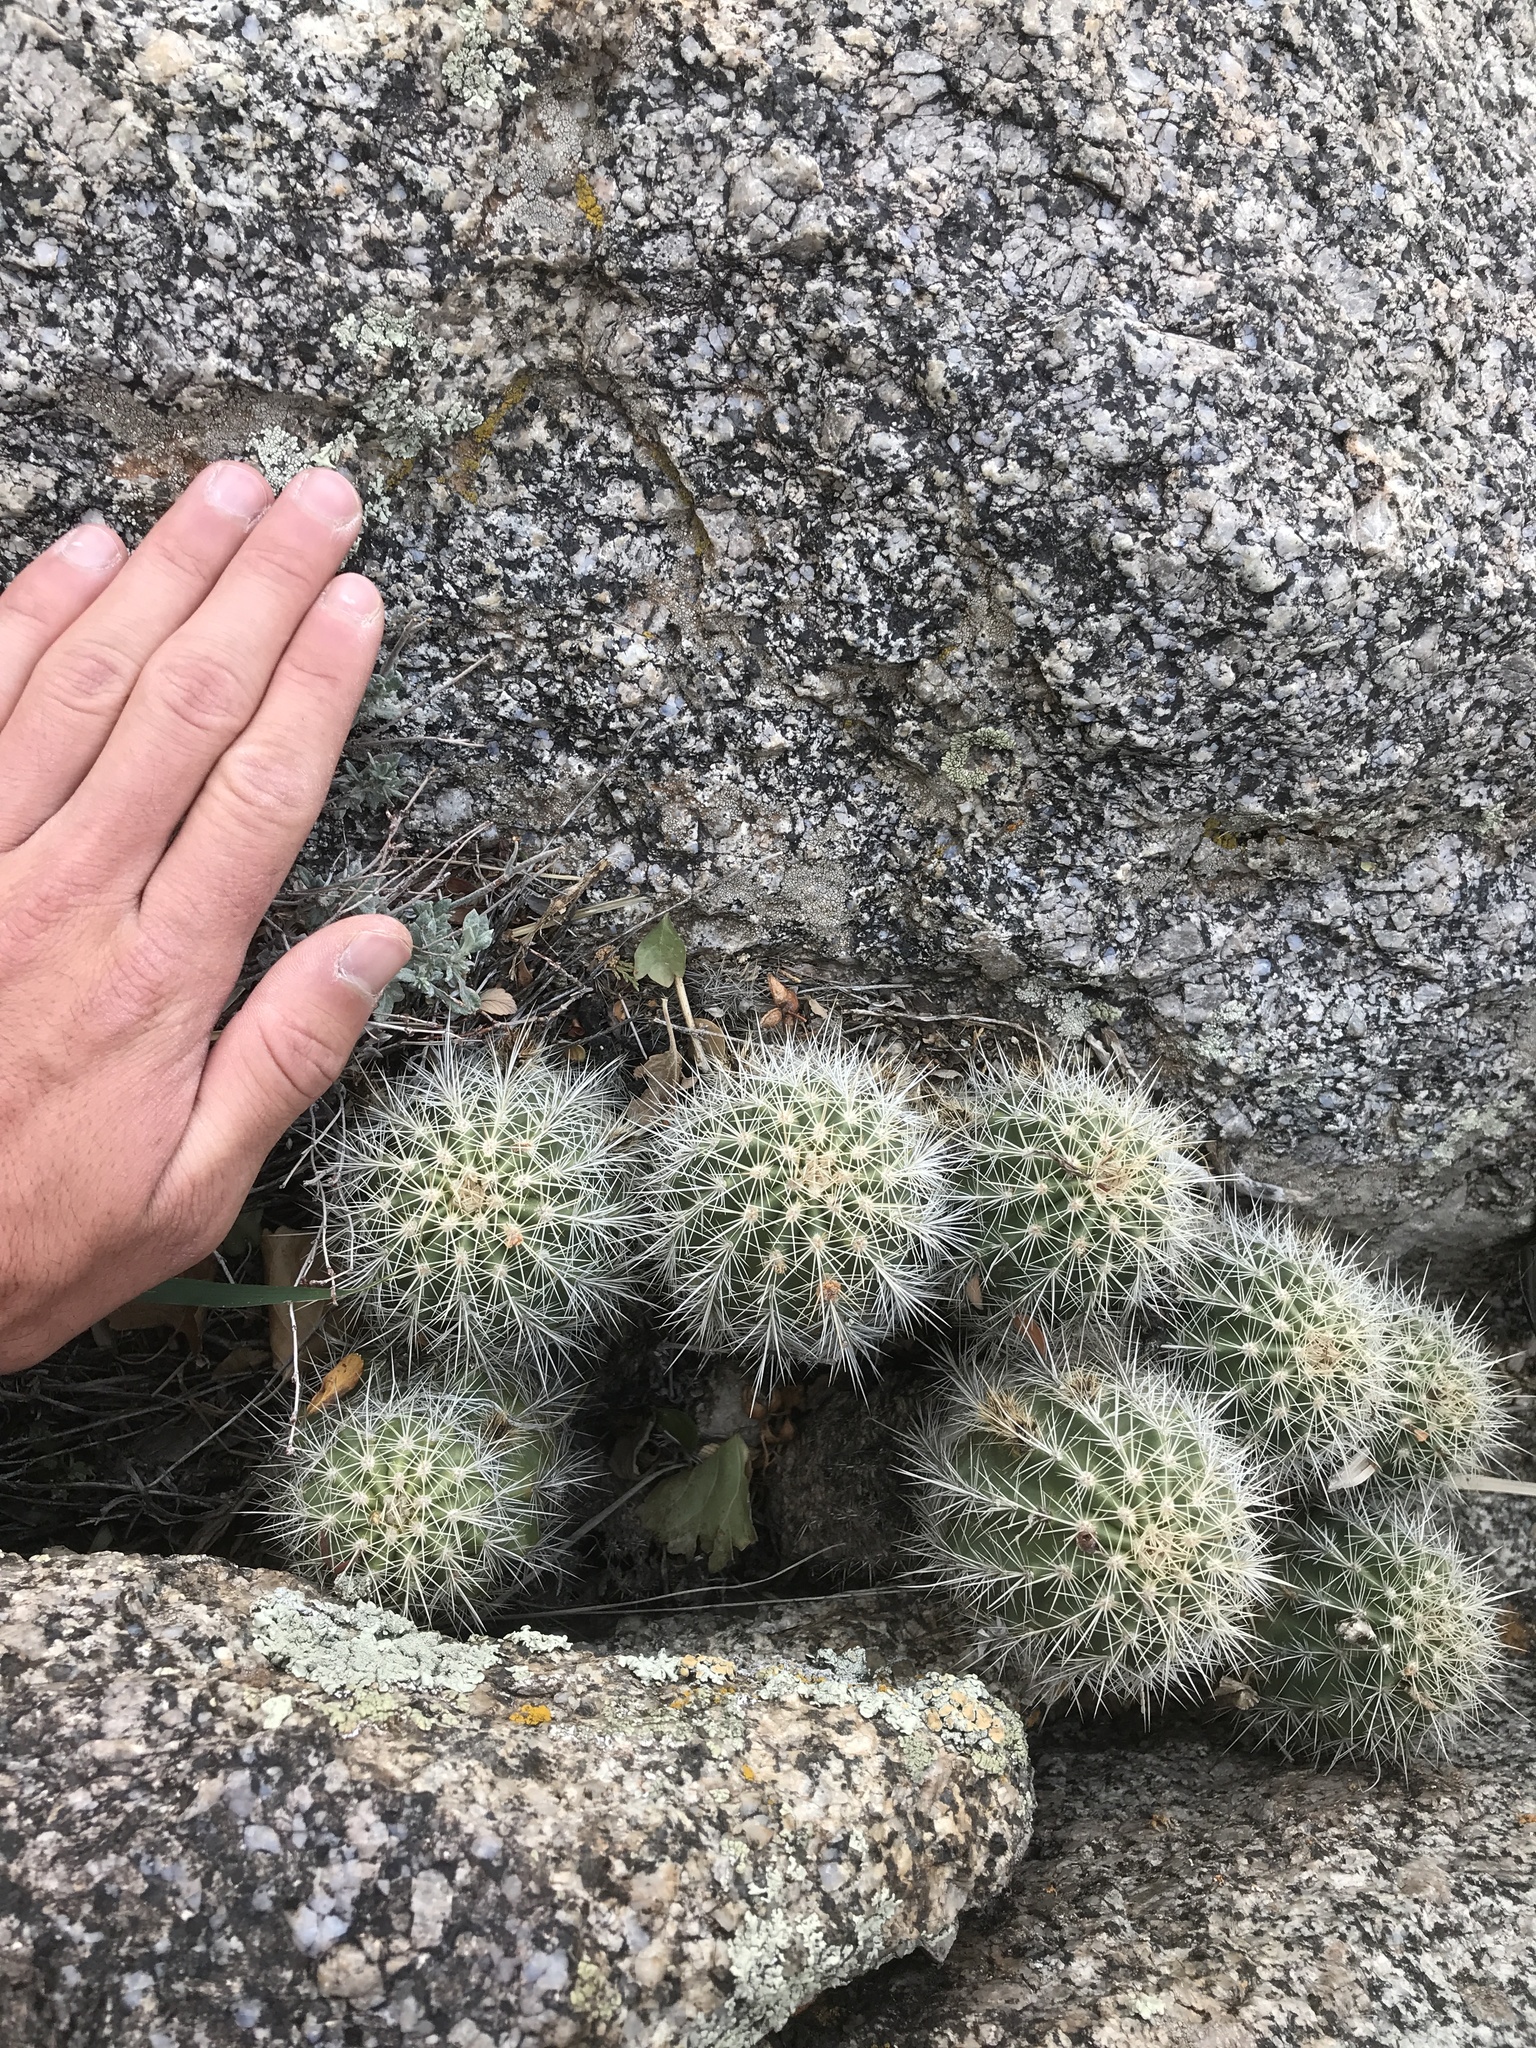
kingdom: Plantae
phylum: Tracheophyta
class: Magnoliopsida
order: Caryophyllales
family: Cactaceae
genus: Echinocereus
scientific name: Echinocereus coccineus
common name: Scarlet hedgehog cactus
